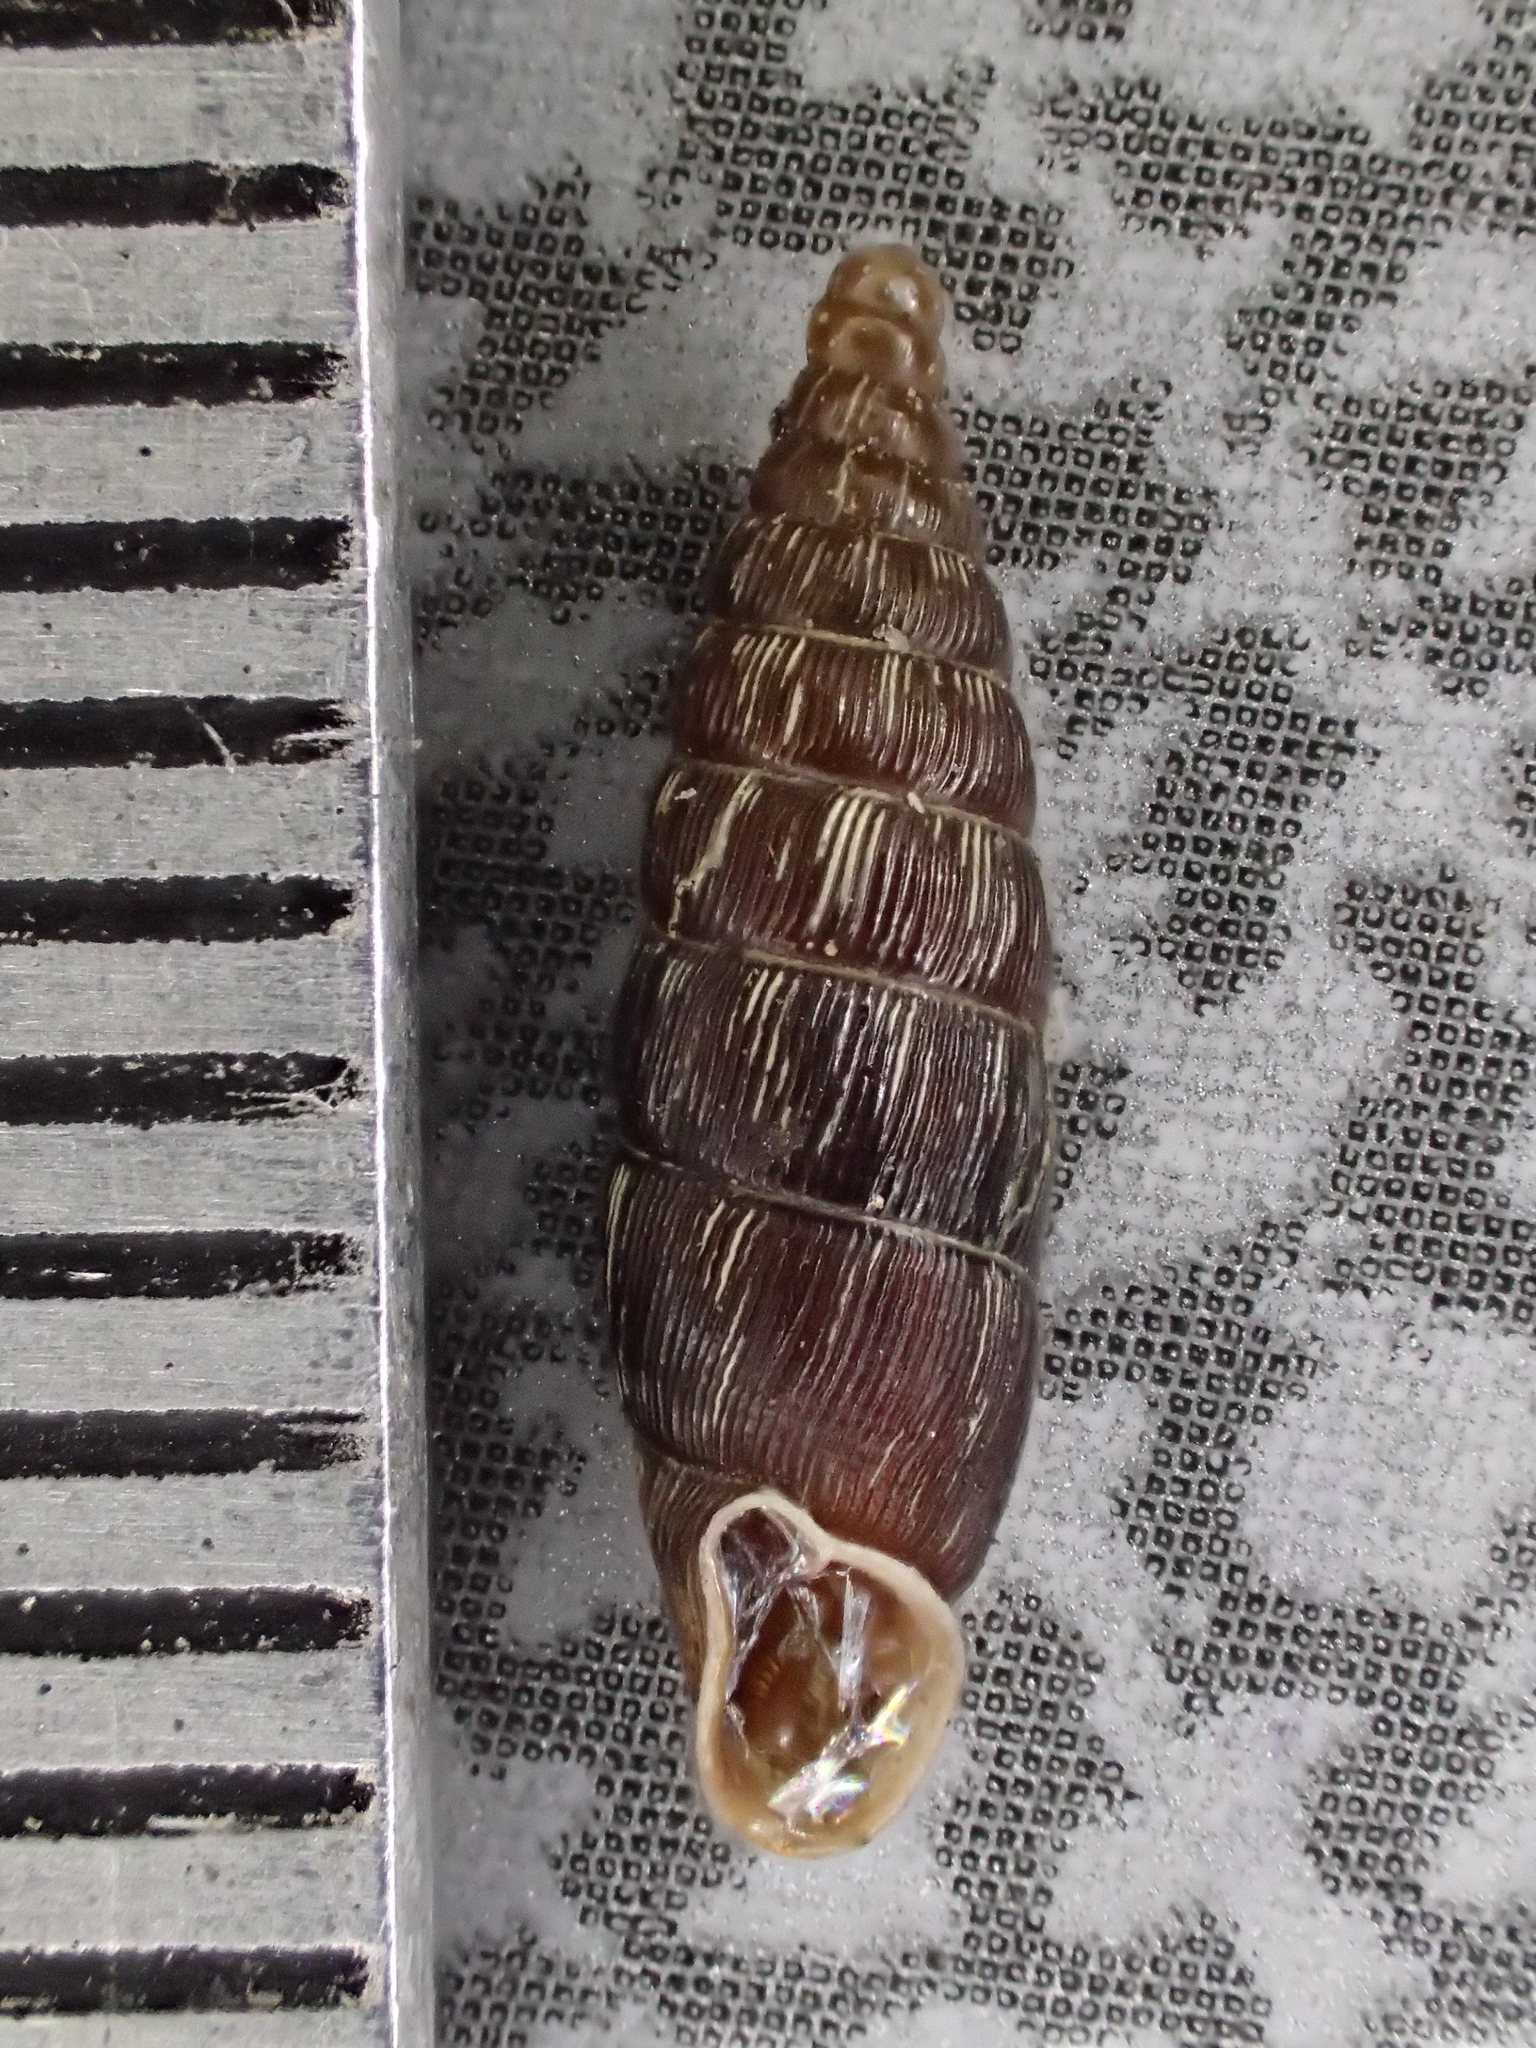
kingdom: Animalia
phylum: Mollusca
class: Gastropoda
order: Stylommatophora
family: Clausiliidae
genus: Clausilia
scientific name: Clausilia bidentata
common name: Two-toothed door snail
